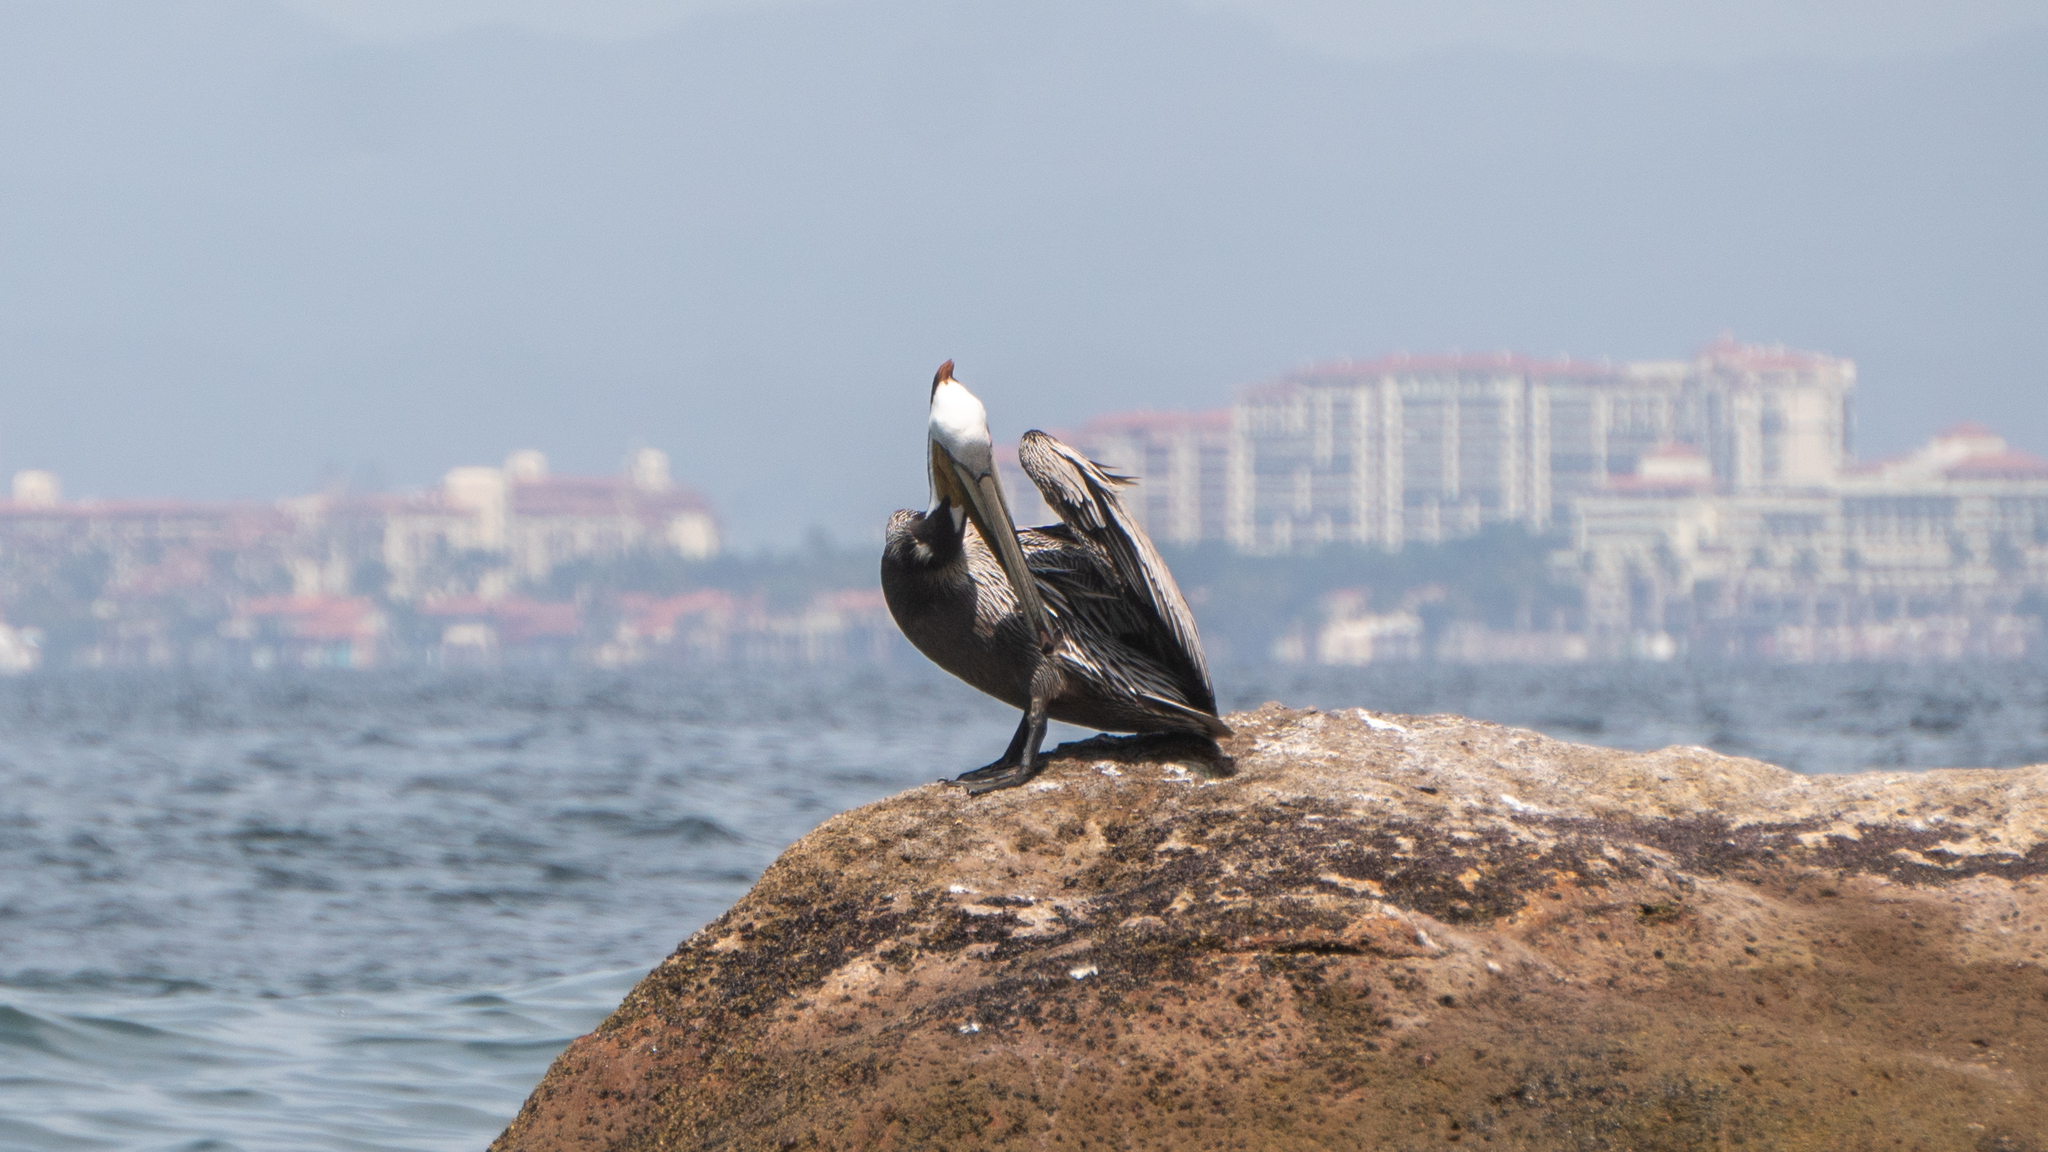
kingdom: Animalia
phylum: Chordata
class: Aves
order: Pelecaniformes
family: Pelecanidae
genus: Pelecanus
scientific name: Pelecanus occidentalis
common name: Brown pelican
